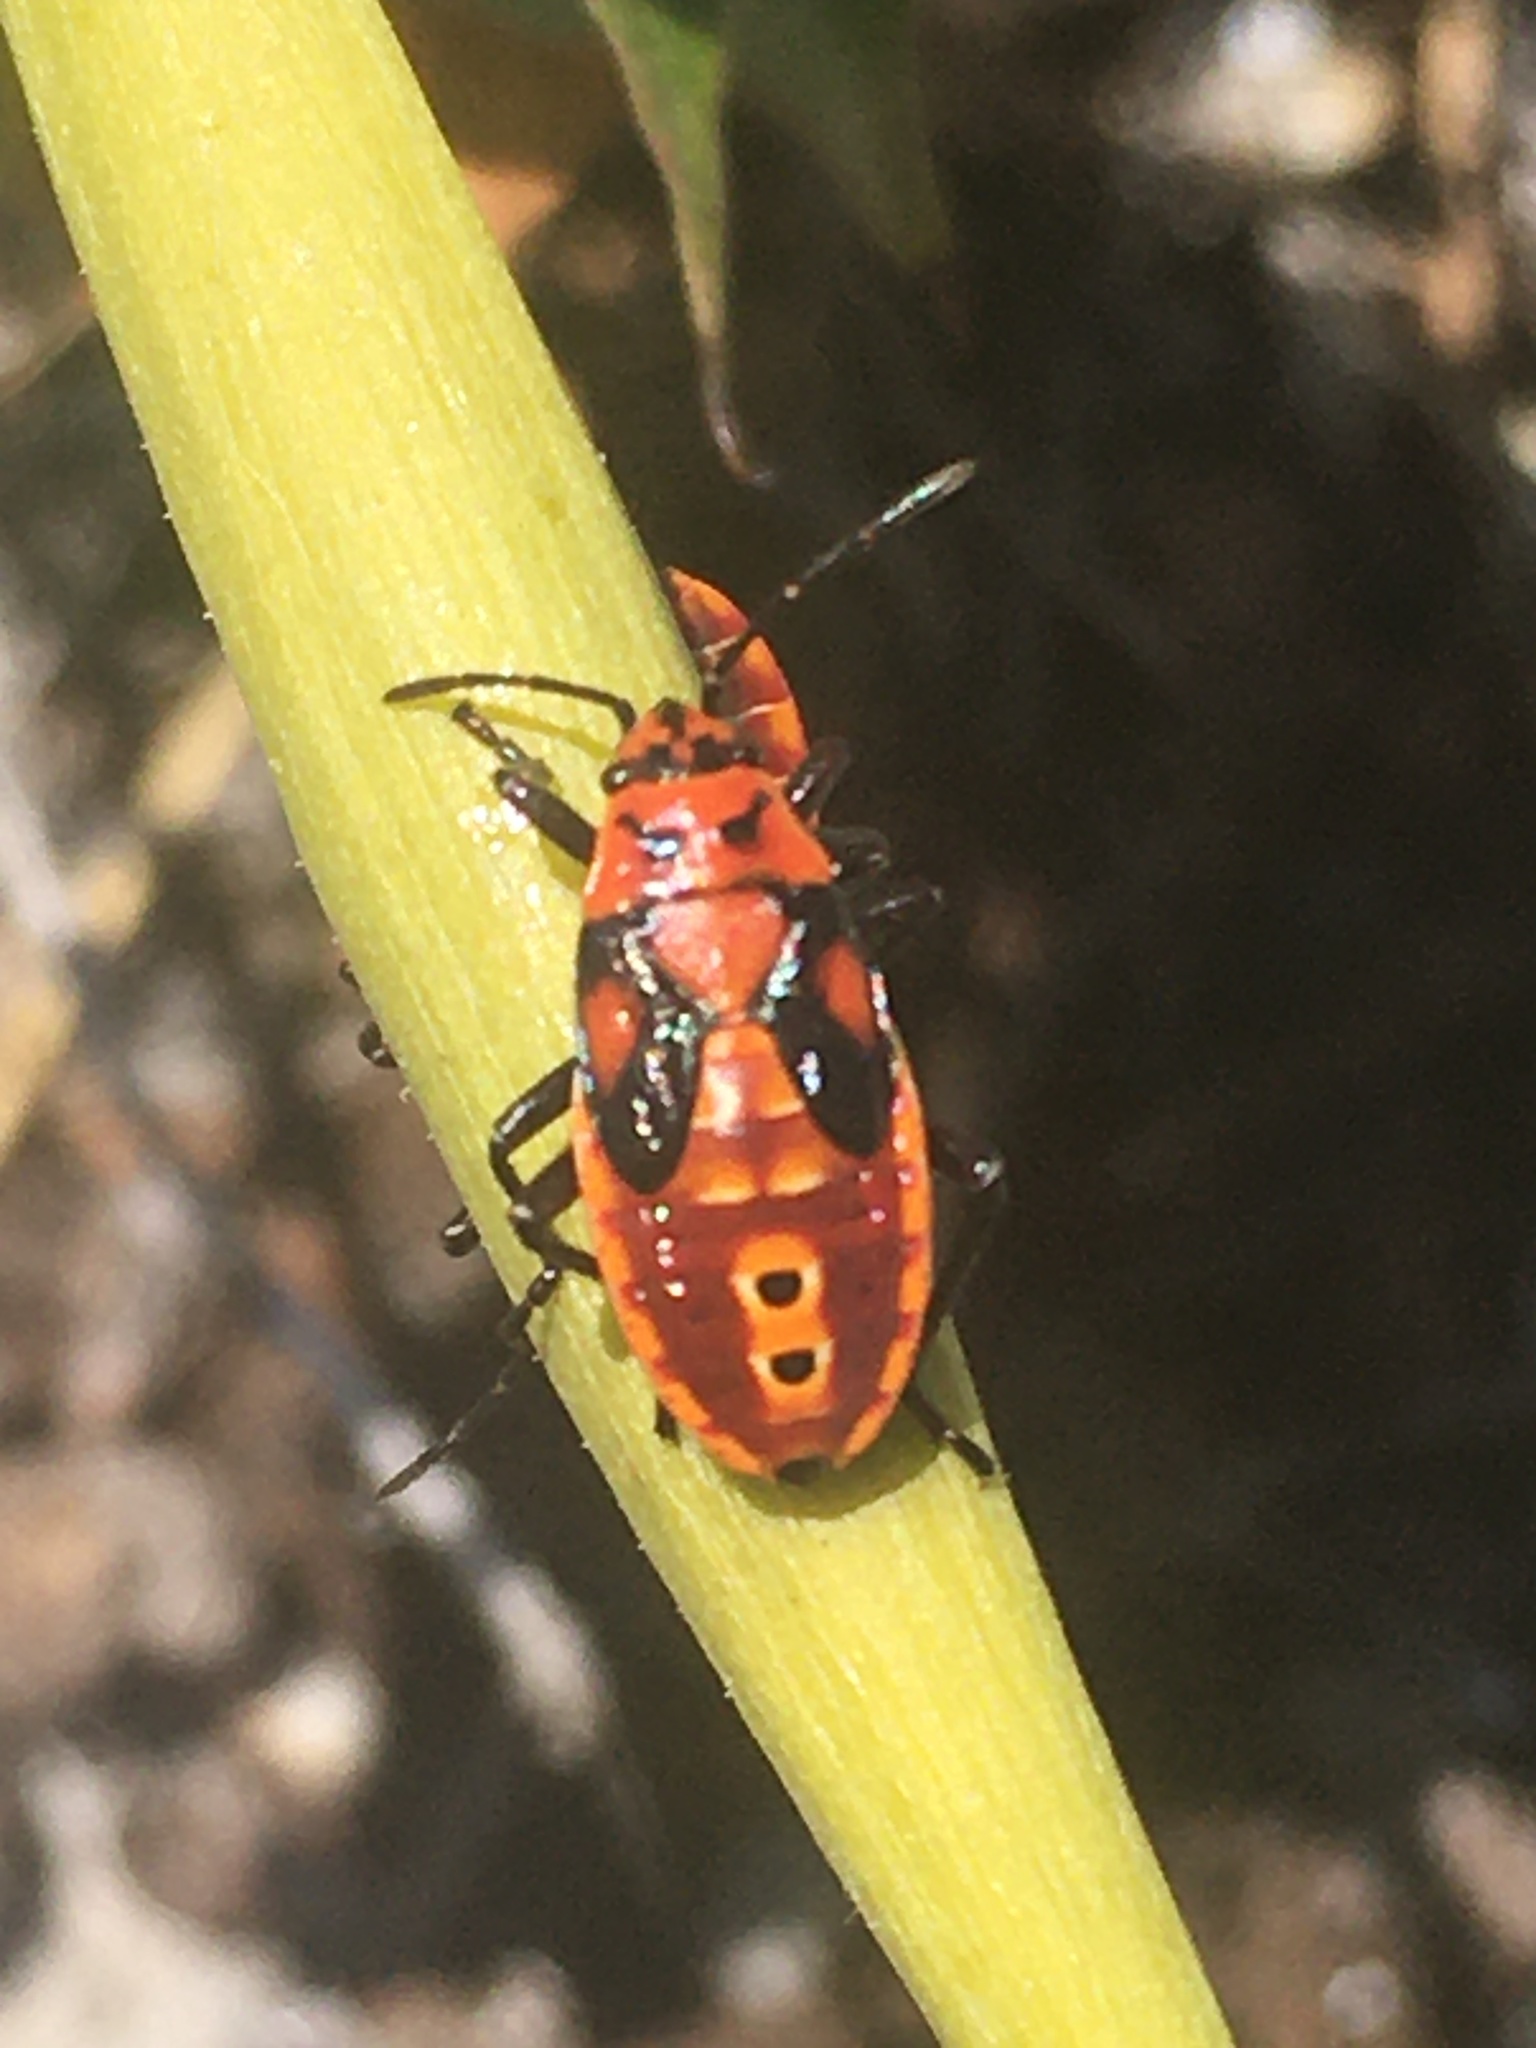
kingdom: Animalia
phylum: Arthropoda
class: Insecta
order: Hemiptera
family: Lygaeidae
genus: Spilostethus
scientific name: Spilostethus pandurus
